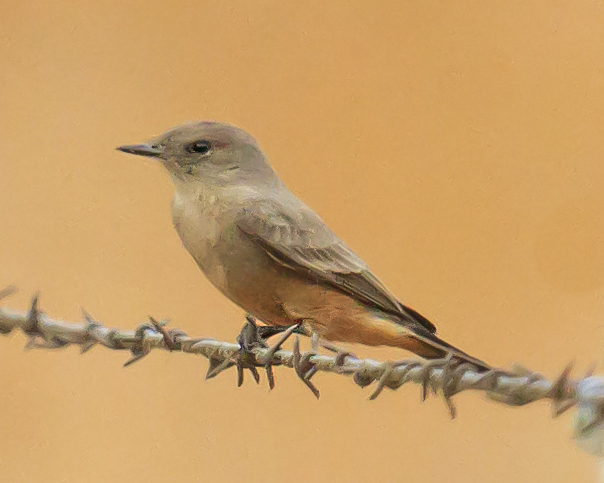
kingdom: Animalia
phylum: Chordata
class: Aves
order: Passeriformes
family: Tyrannidae
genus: Sayornis
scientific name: Sayornis saya
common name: Say's phoebe
